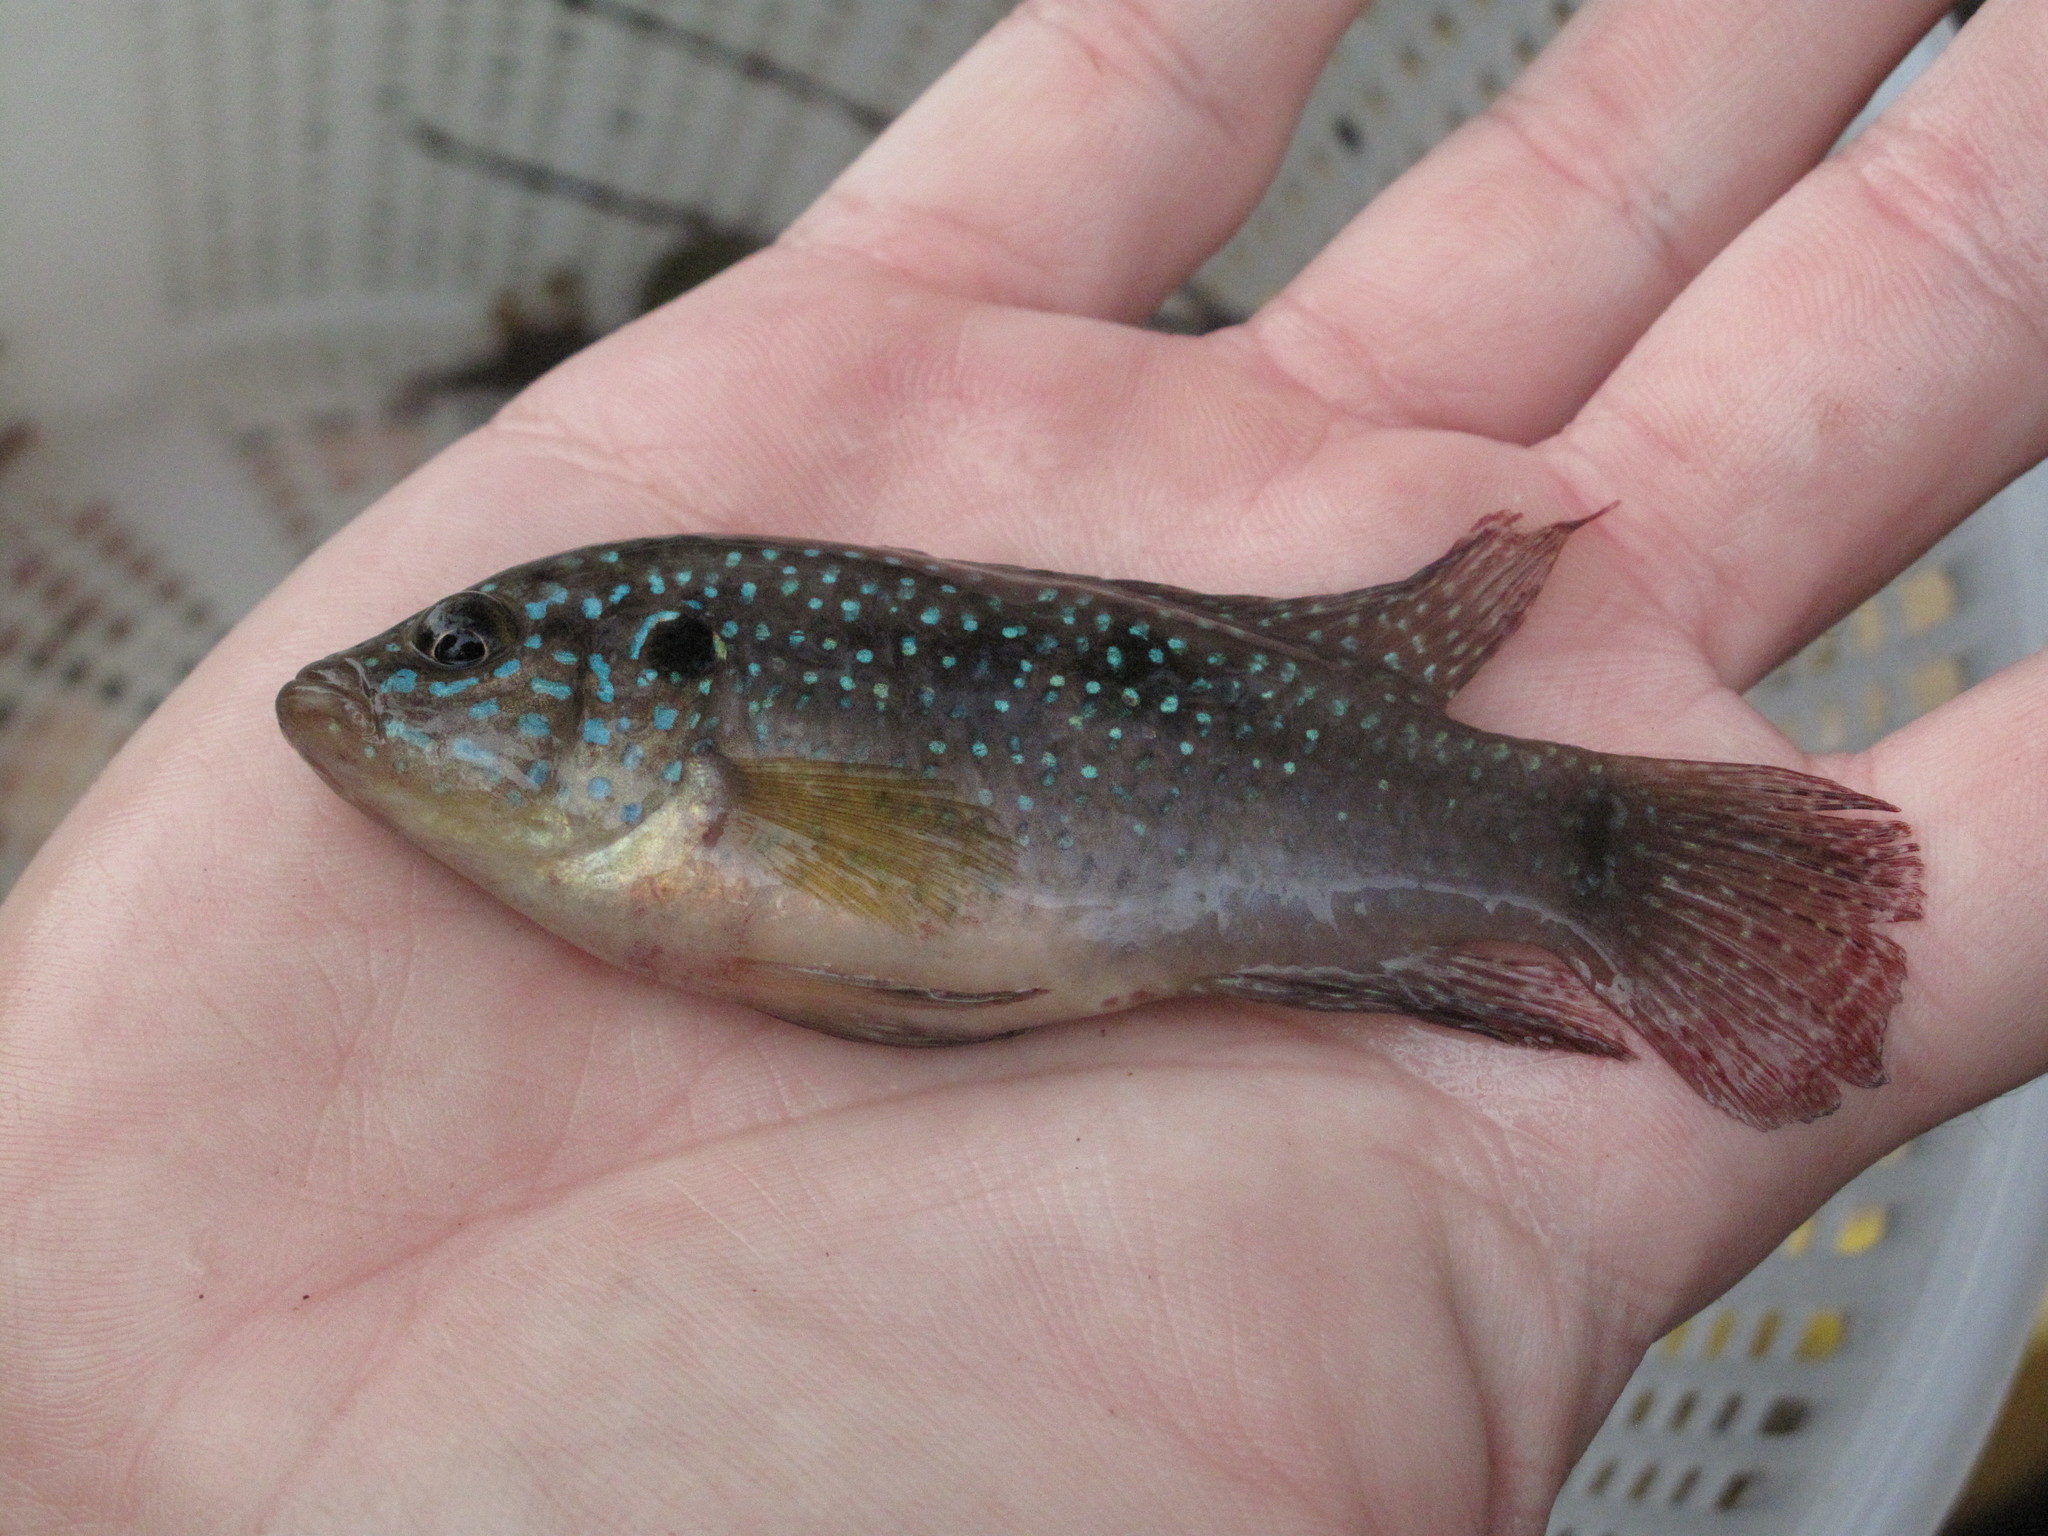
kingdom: Animalia
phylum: Chordata
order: Perciformes
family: Cichlidae
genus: Rubricatochromis
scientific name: Rubricatochromis
